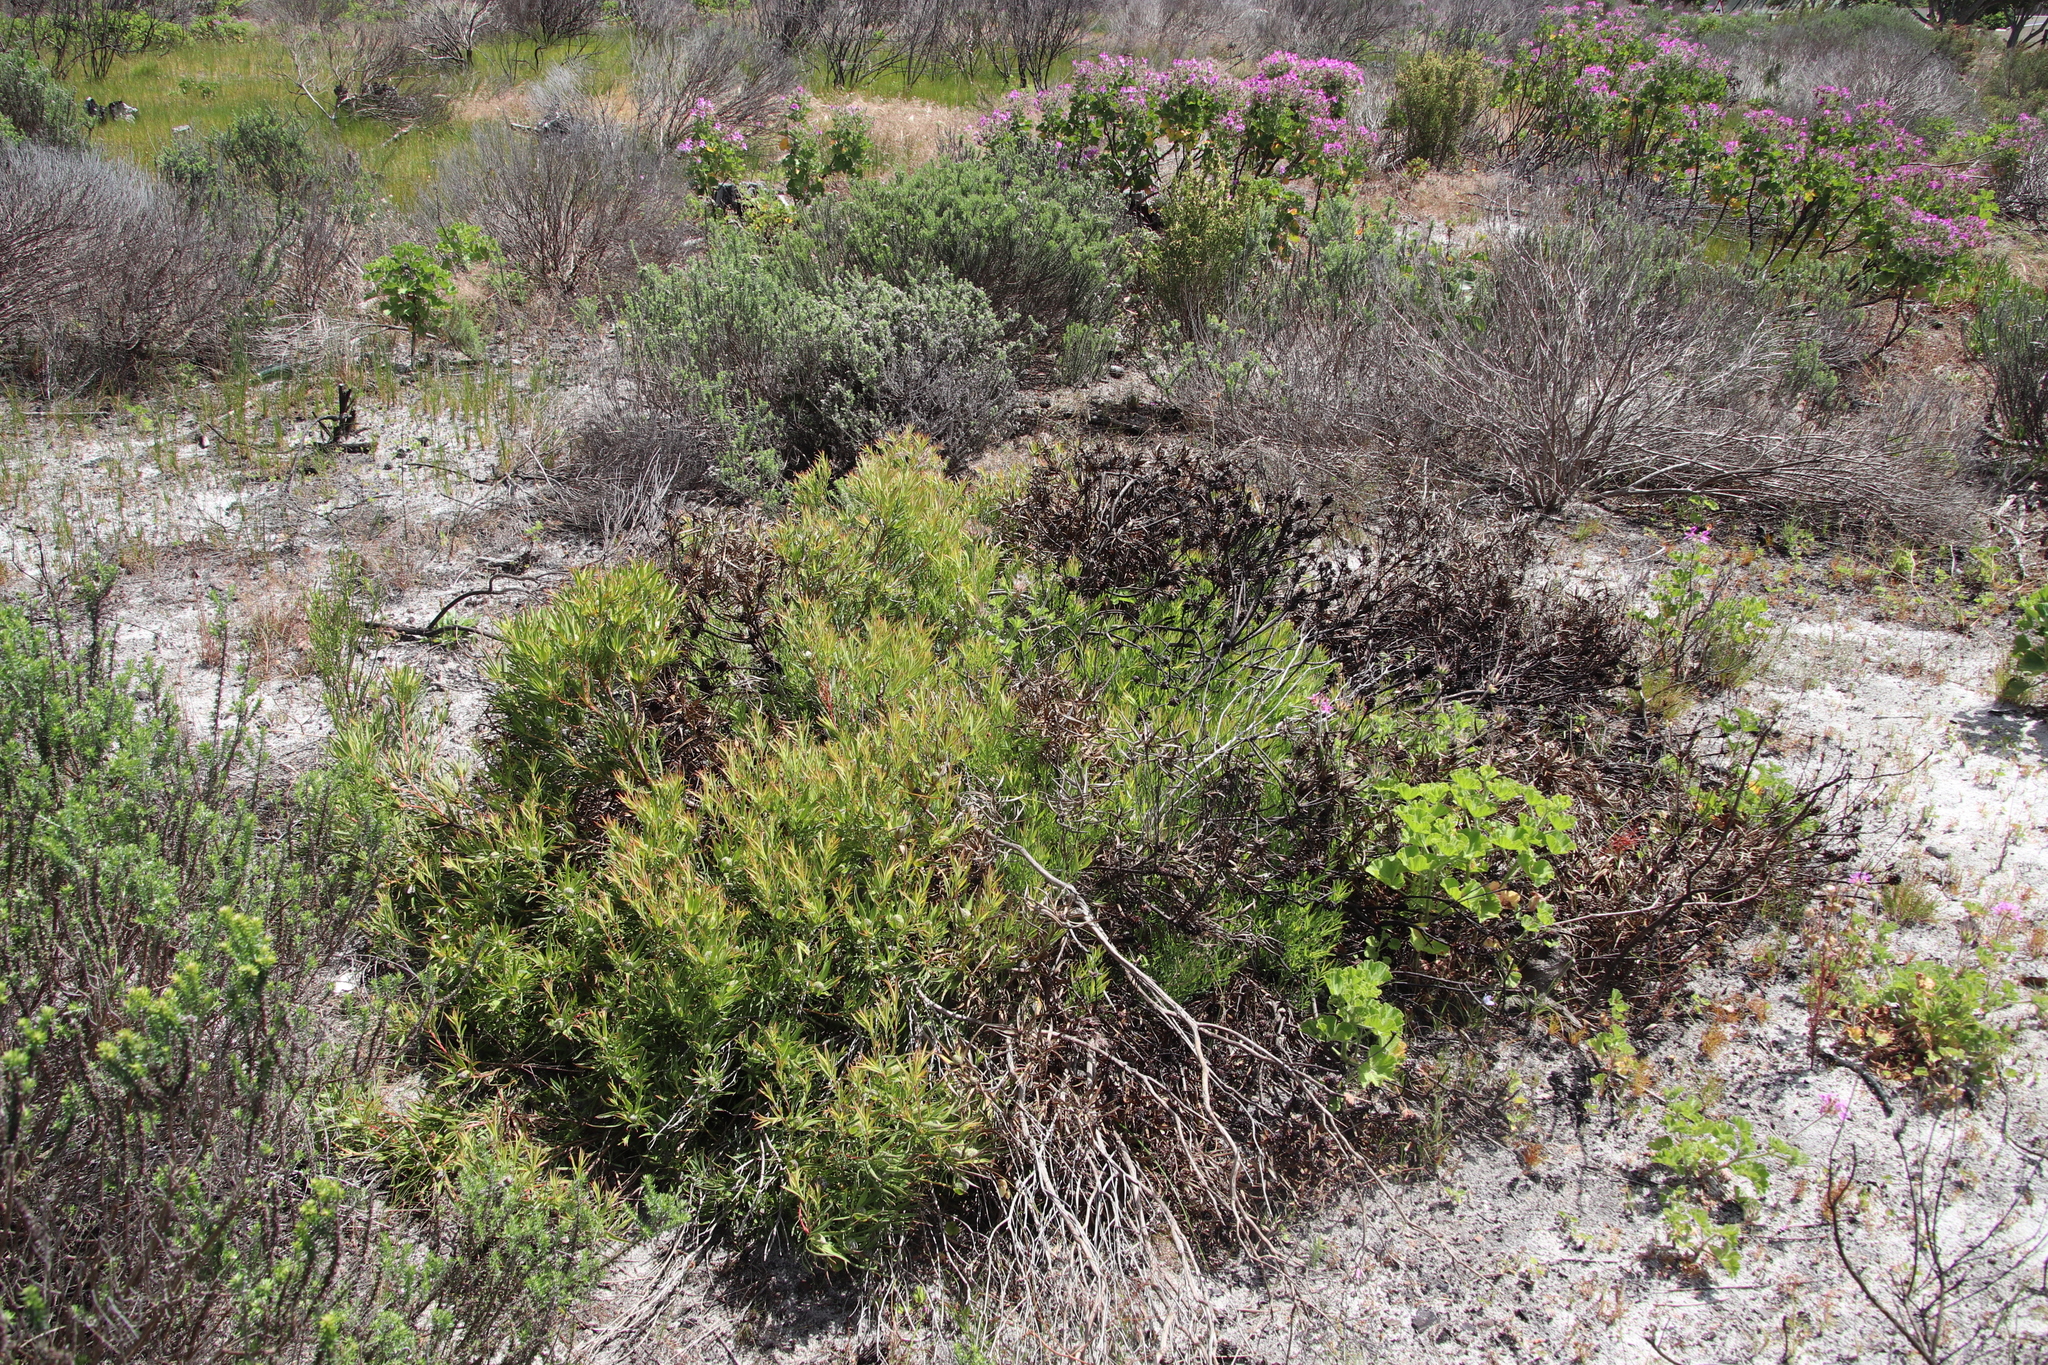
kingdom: Plantae
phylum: Tracheophyta
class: Magnoliopsida
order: Proteales
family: Proteaceae
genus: Leucadendron
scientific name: Leucadendron salignum
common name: Common sunshine conebush
